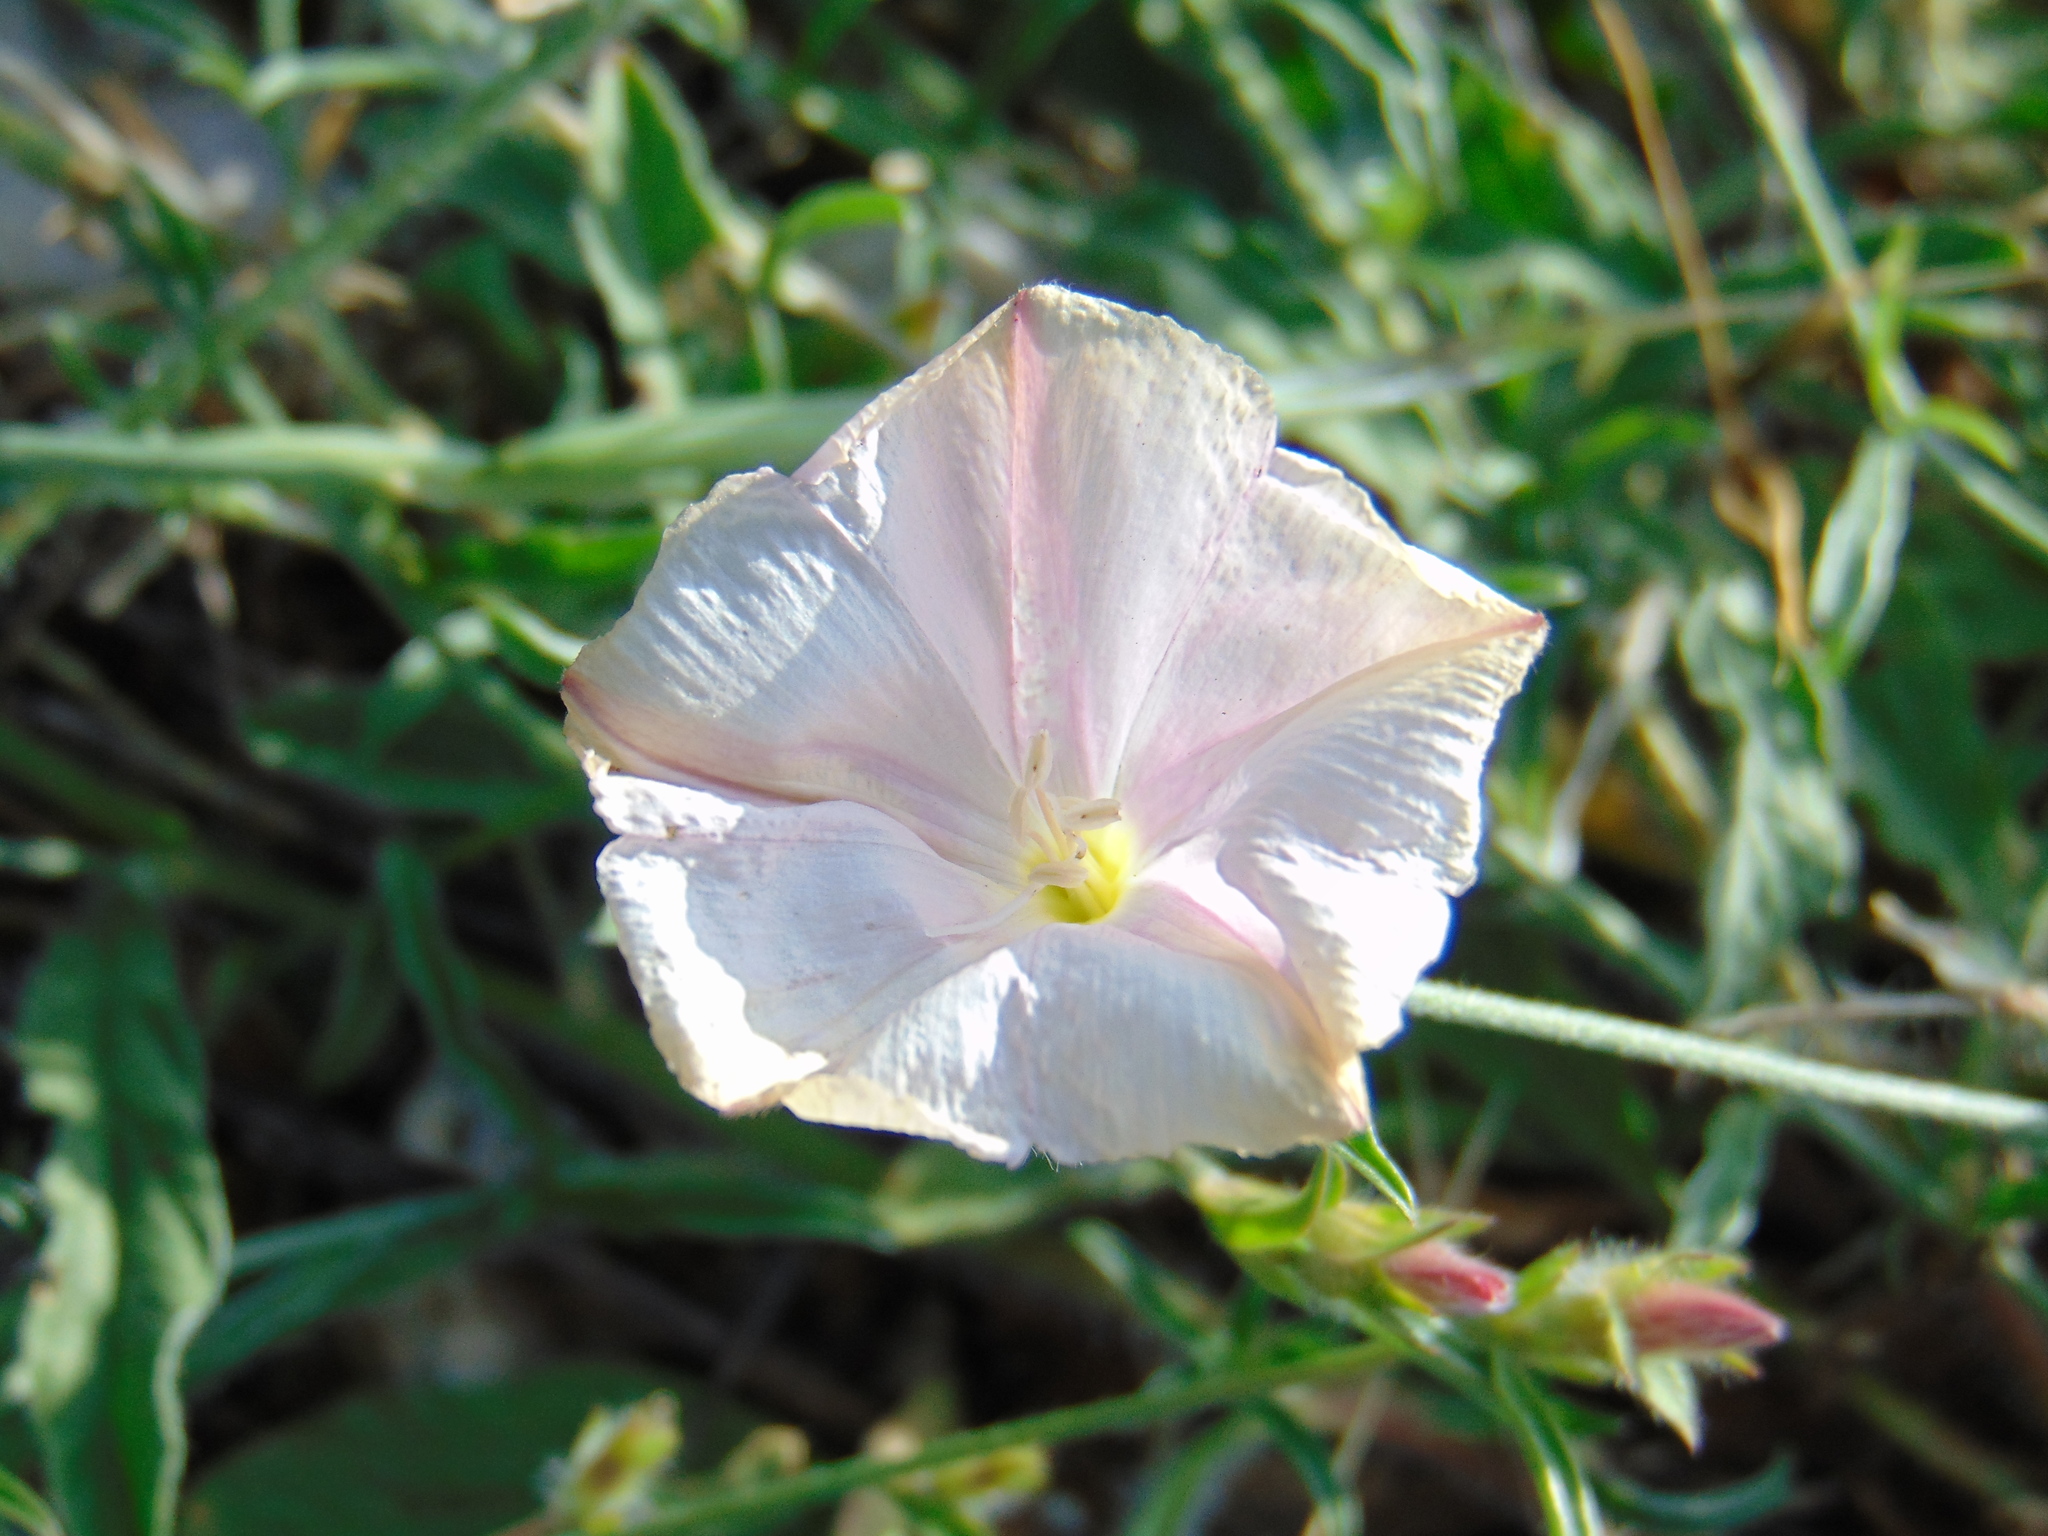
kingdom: Plantae
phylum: Tracheophyta
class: Magnoliopsida
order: Solanales
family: Convolvulaceae
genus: Convolvulus
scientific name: Convolvulus cantabrica
